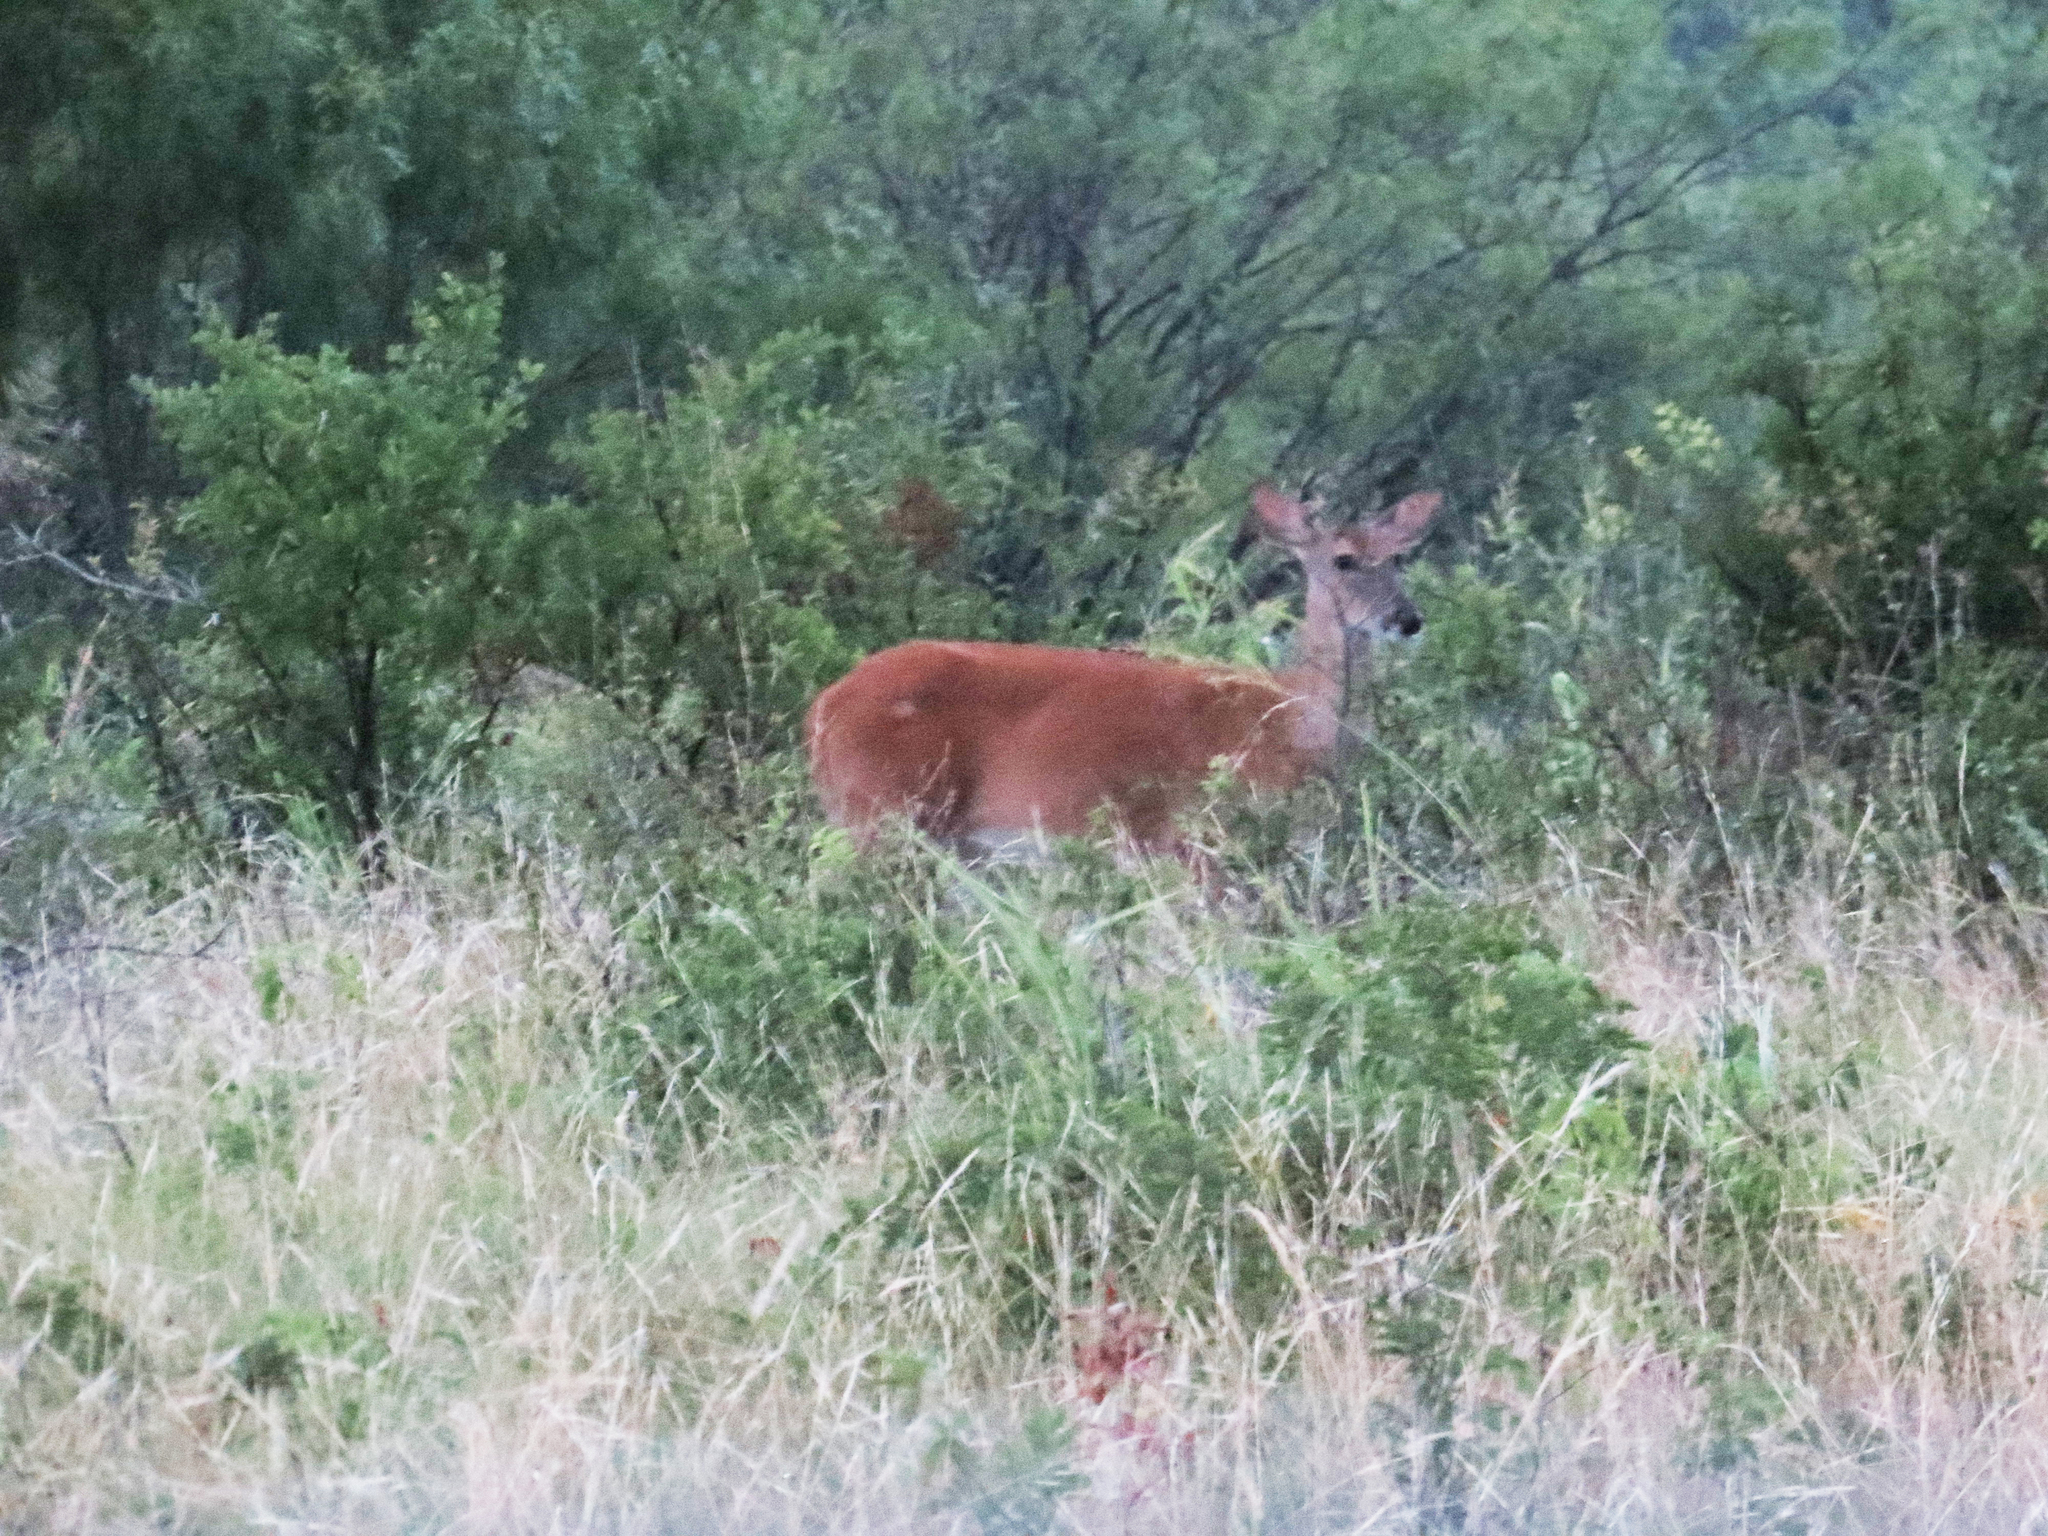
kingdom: Animalia
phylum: Chordata
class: Mammalia
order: Artiodactyla
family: Cervidae
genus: Odocoileus
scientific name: Odocoileus virginianus
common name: White-tailed deer
